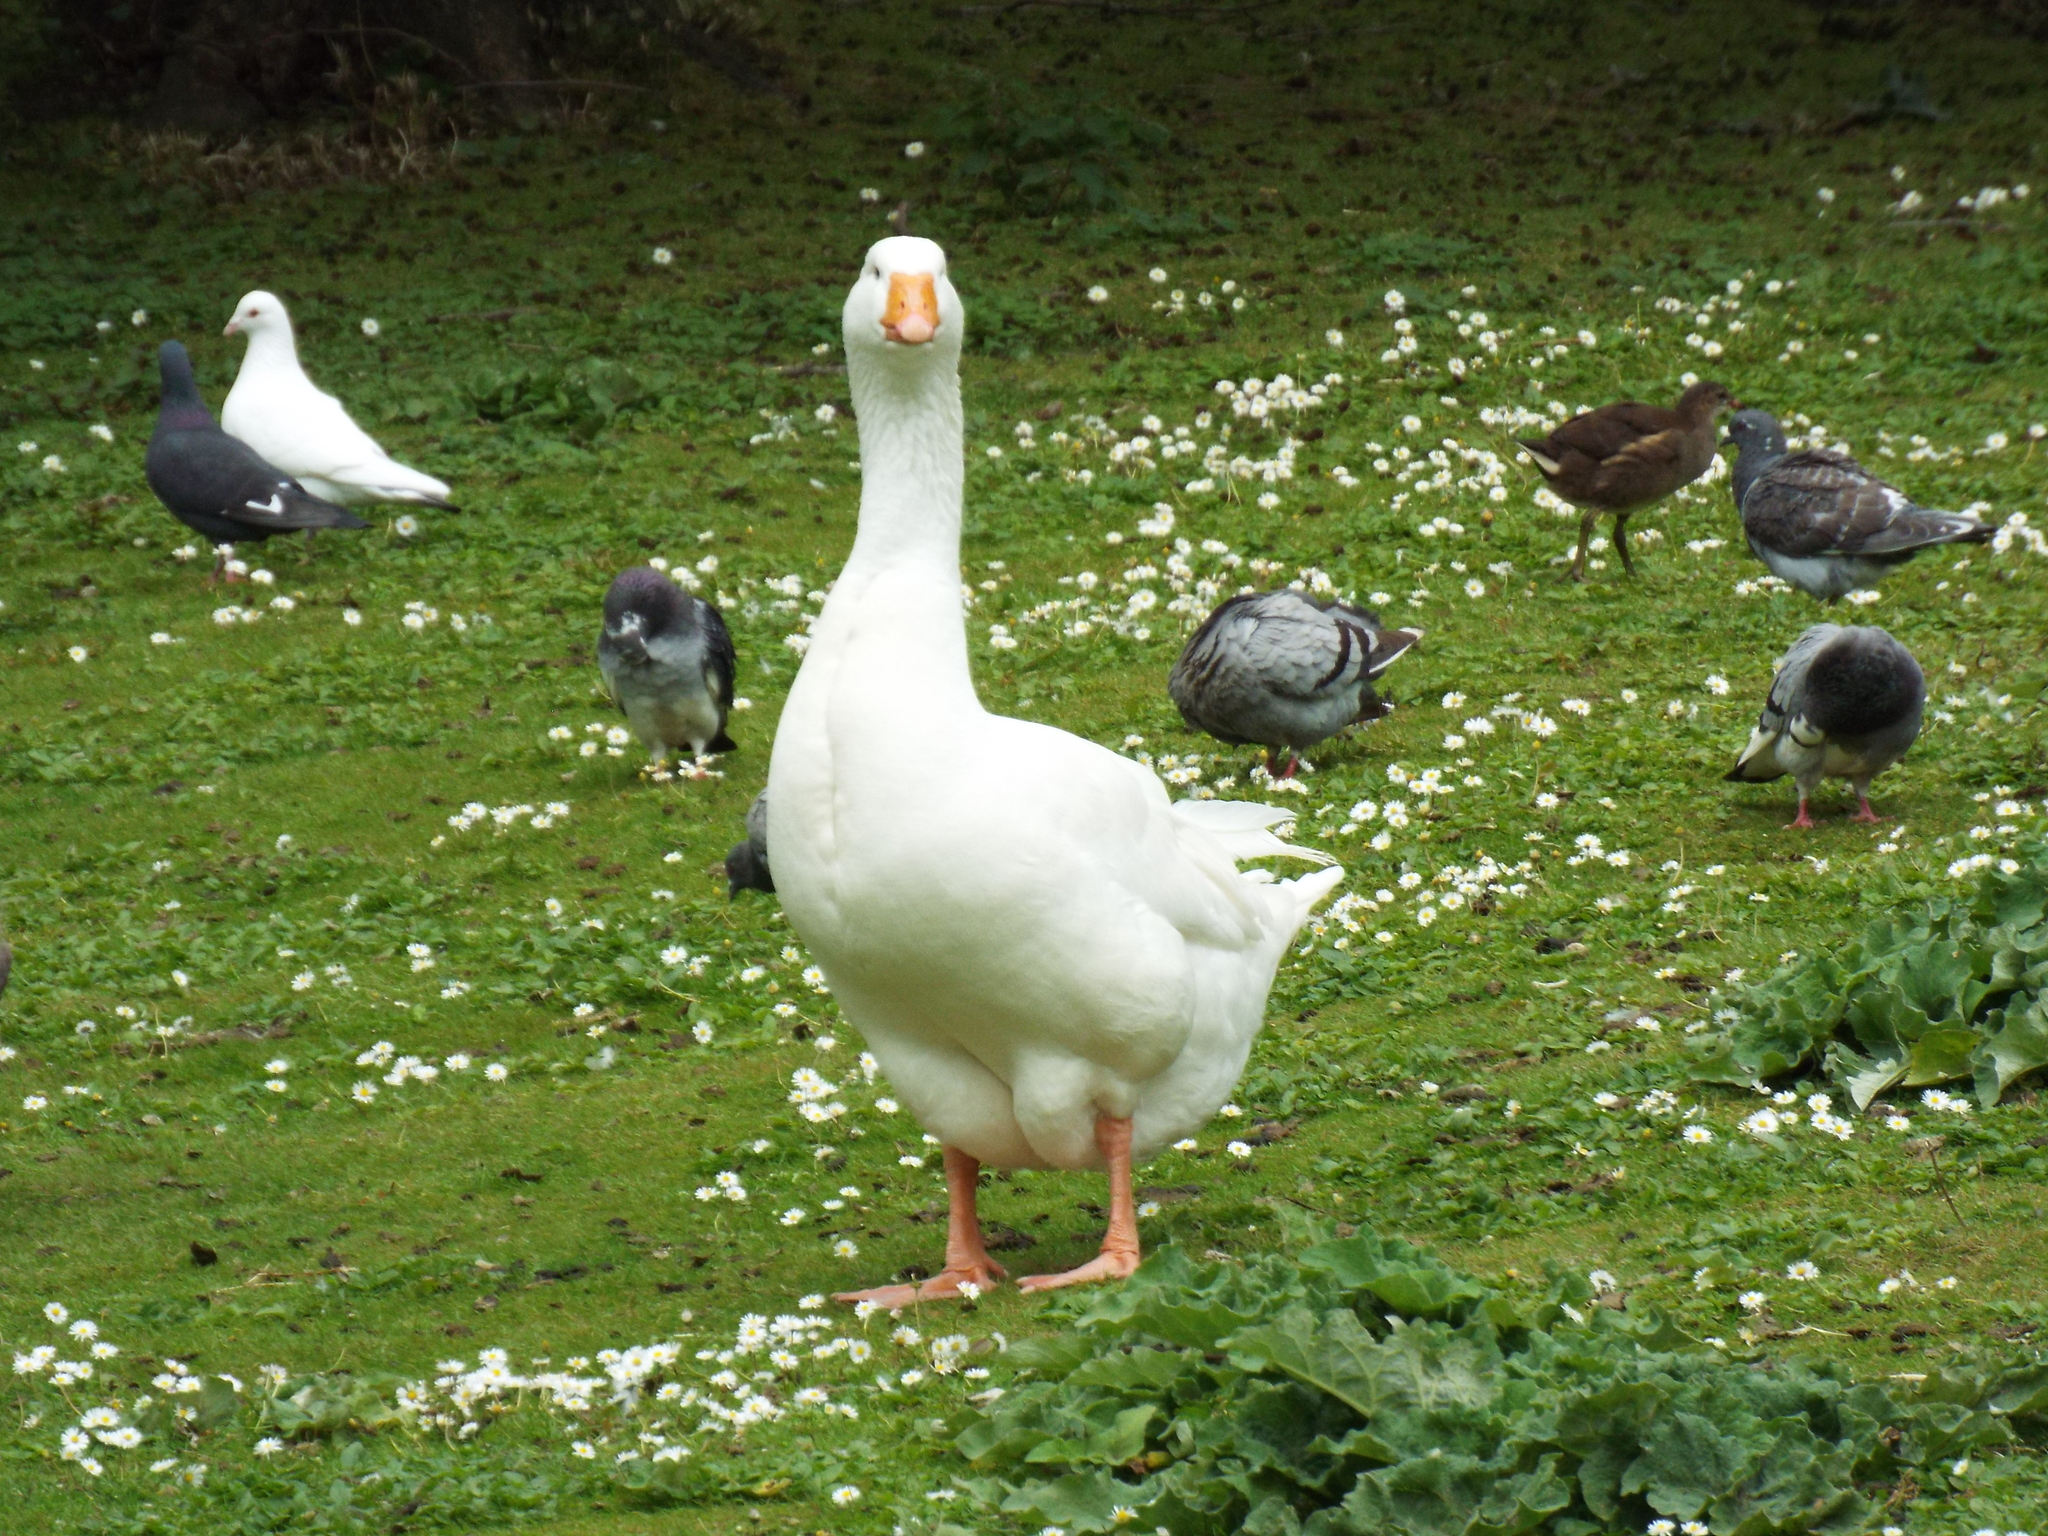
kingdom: Animalia
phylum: Chordata
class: Aves
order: Gruiformes
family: Rallidae
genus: Gallinula
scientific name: Gallinula chloropus
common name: Common moorhen
